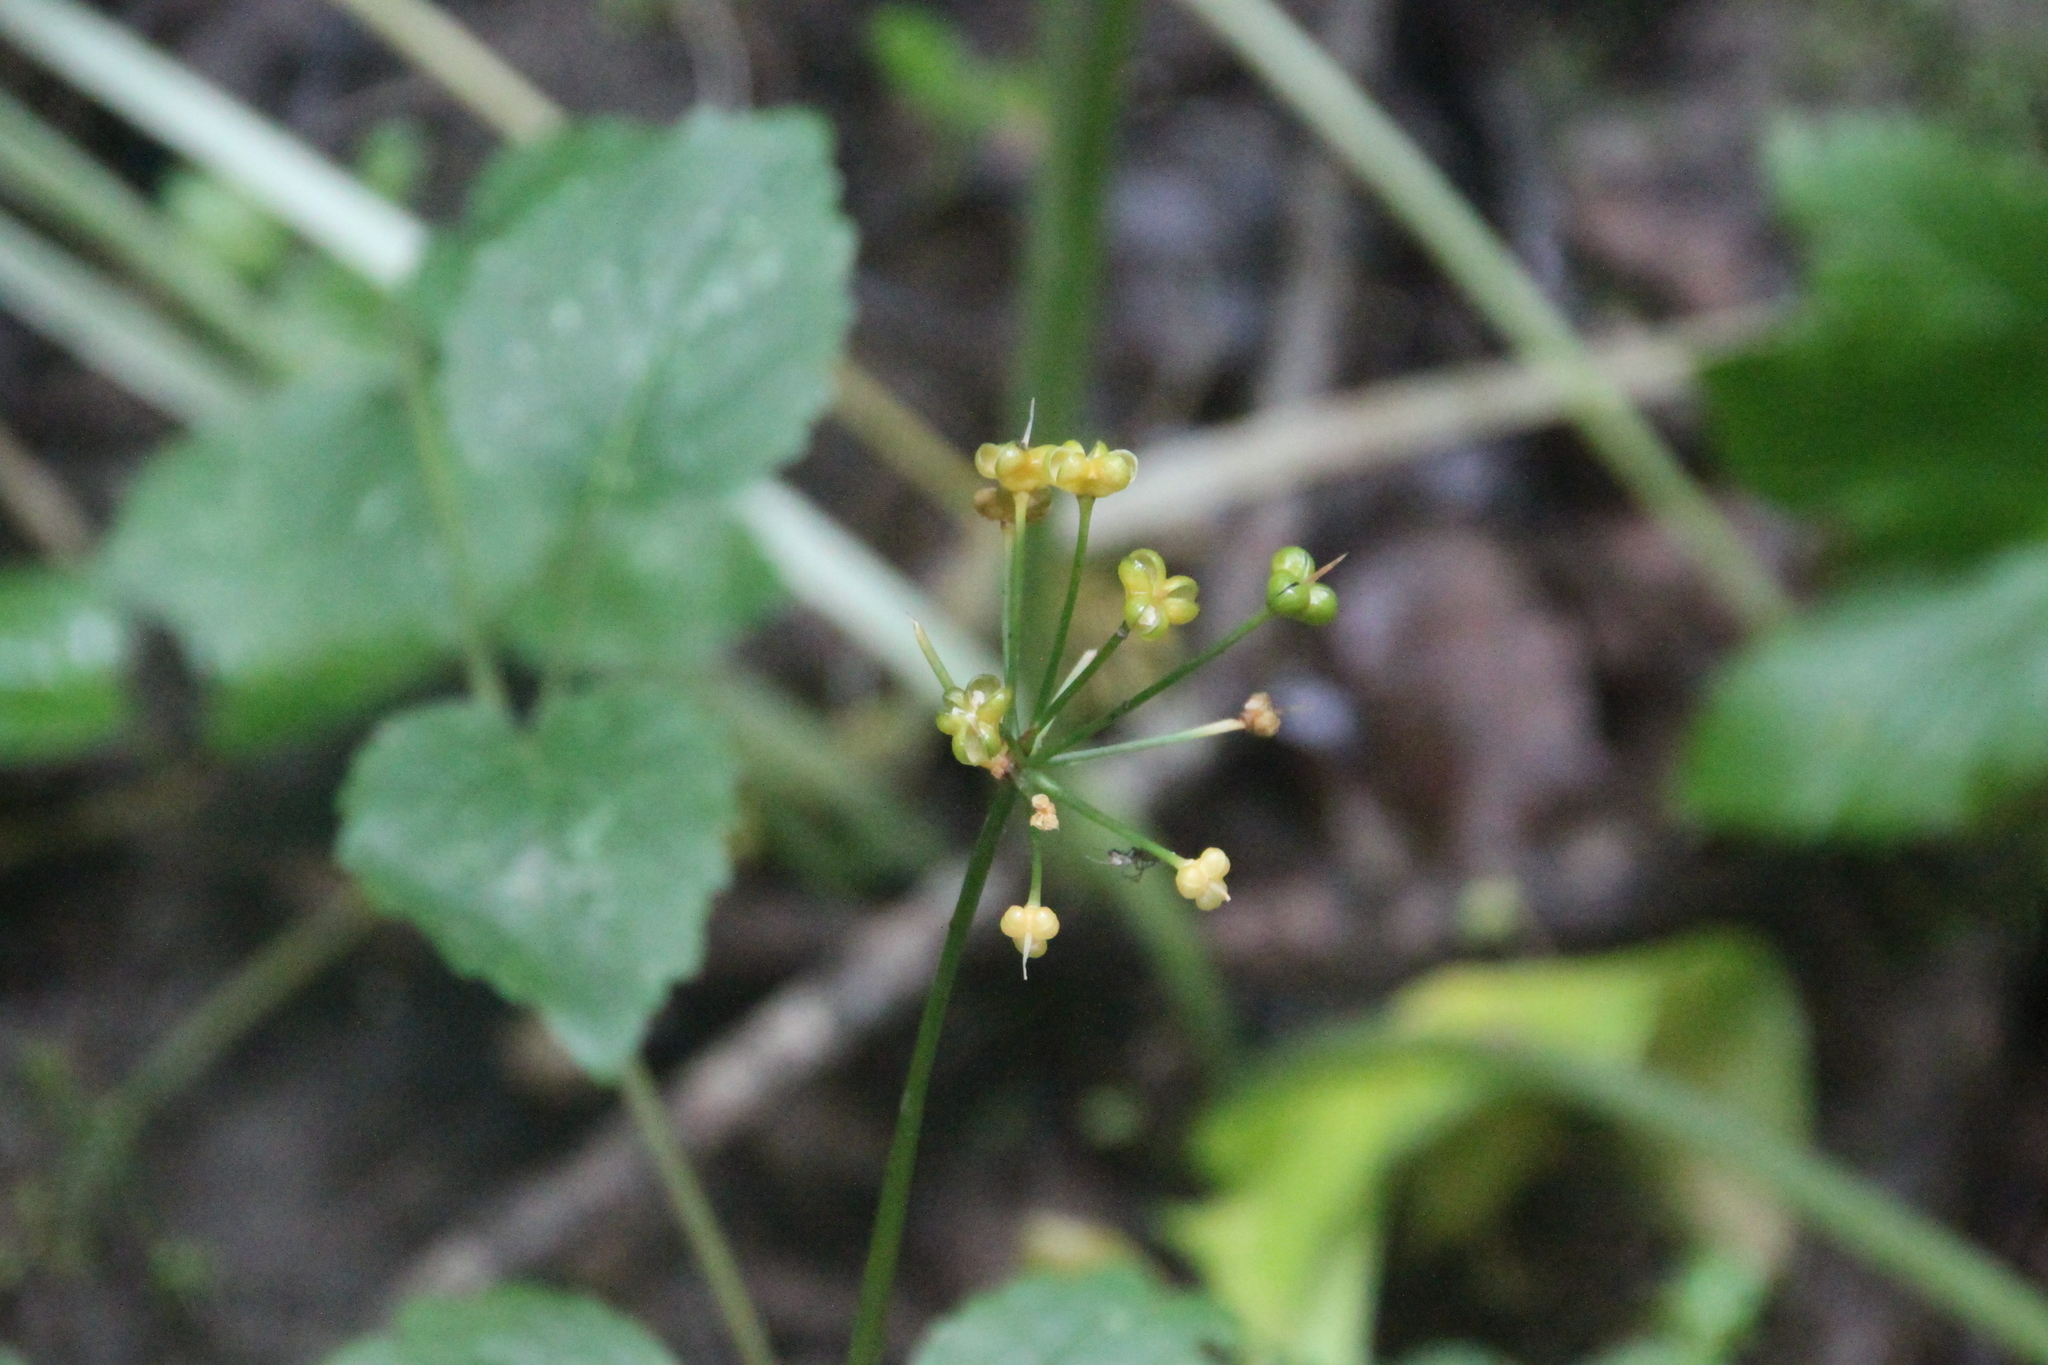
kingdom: Plantae
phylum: Tracheophyta
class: Liliopsida
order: Asparagales
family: Amaryllidaceae
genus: Allium
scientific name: Allium ursinum
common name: Ramsons
